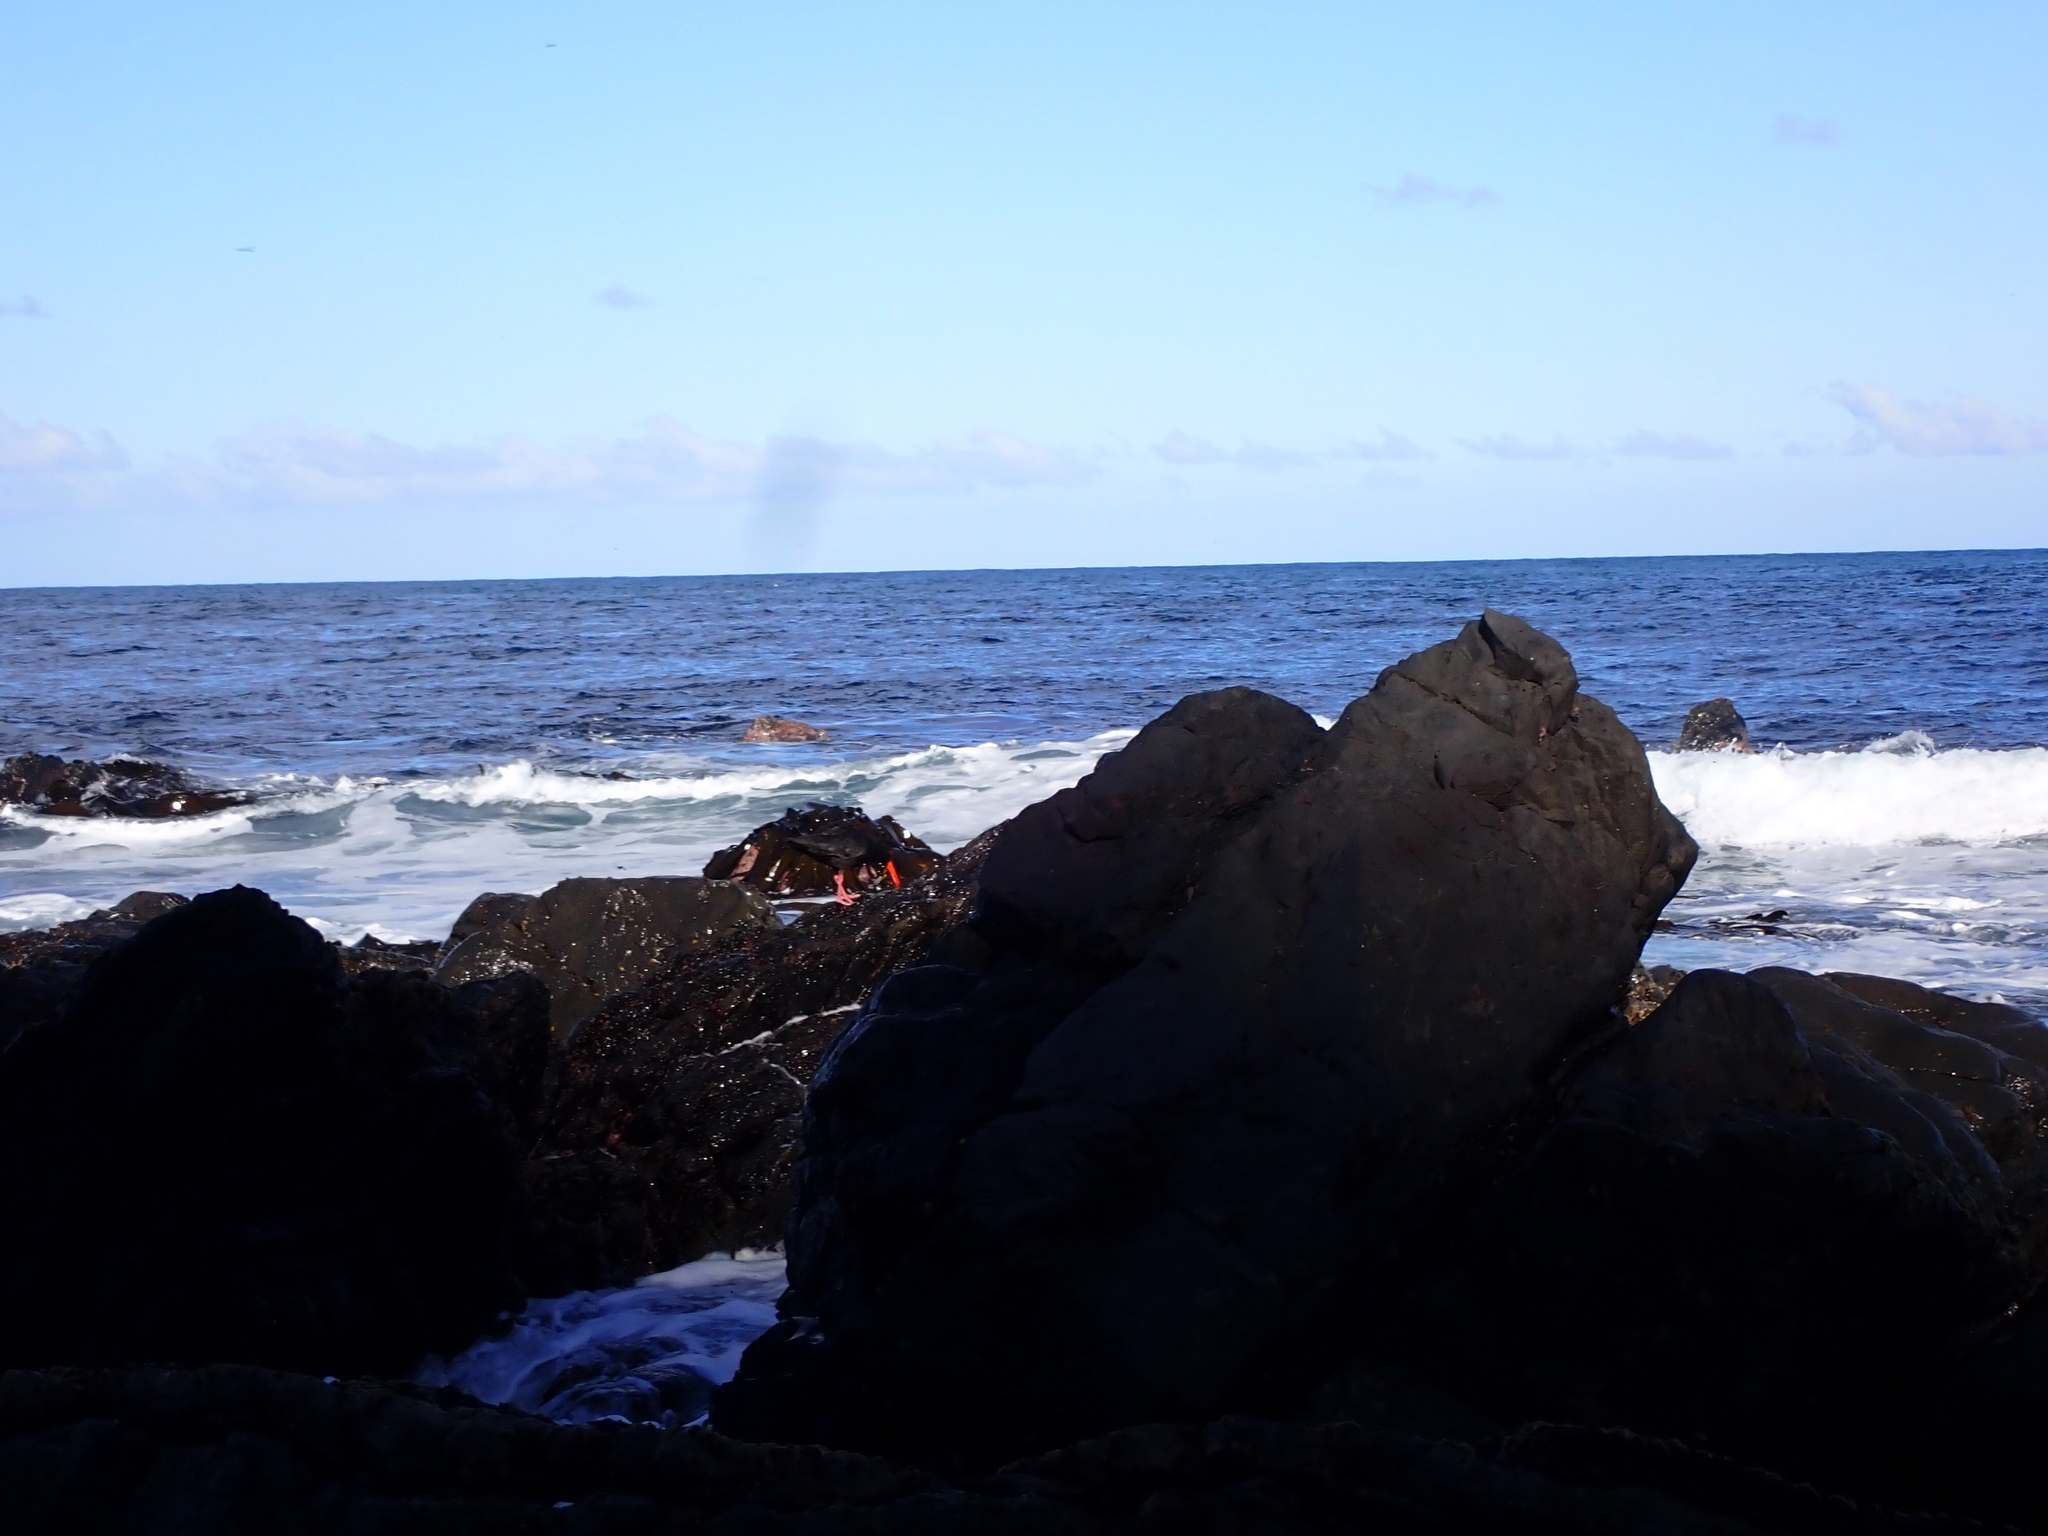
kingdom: Animalia
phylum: Chordata
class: Aves
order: Charadriiformes
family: Haematopodidae
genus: Haematopus
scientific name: Haematopus unicolor
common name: Variable oystercatcher
